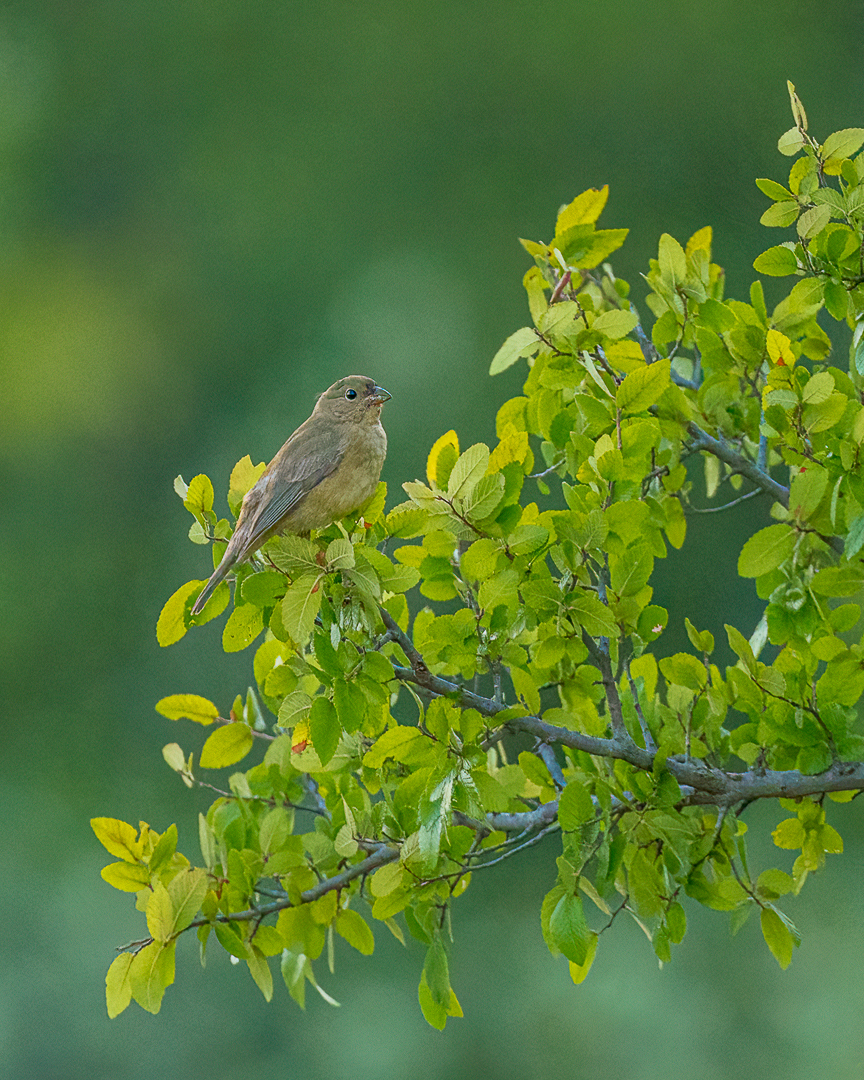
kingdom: Animalia
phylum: Chordata
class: Aves
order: Passeriformes
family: Cardinalidae
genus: Passerina
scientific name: Passerina ciris
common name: Painted bunting
